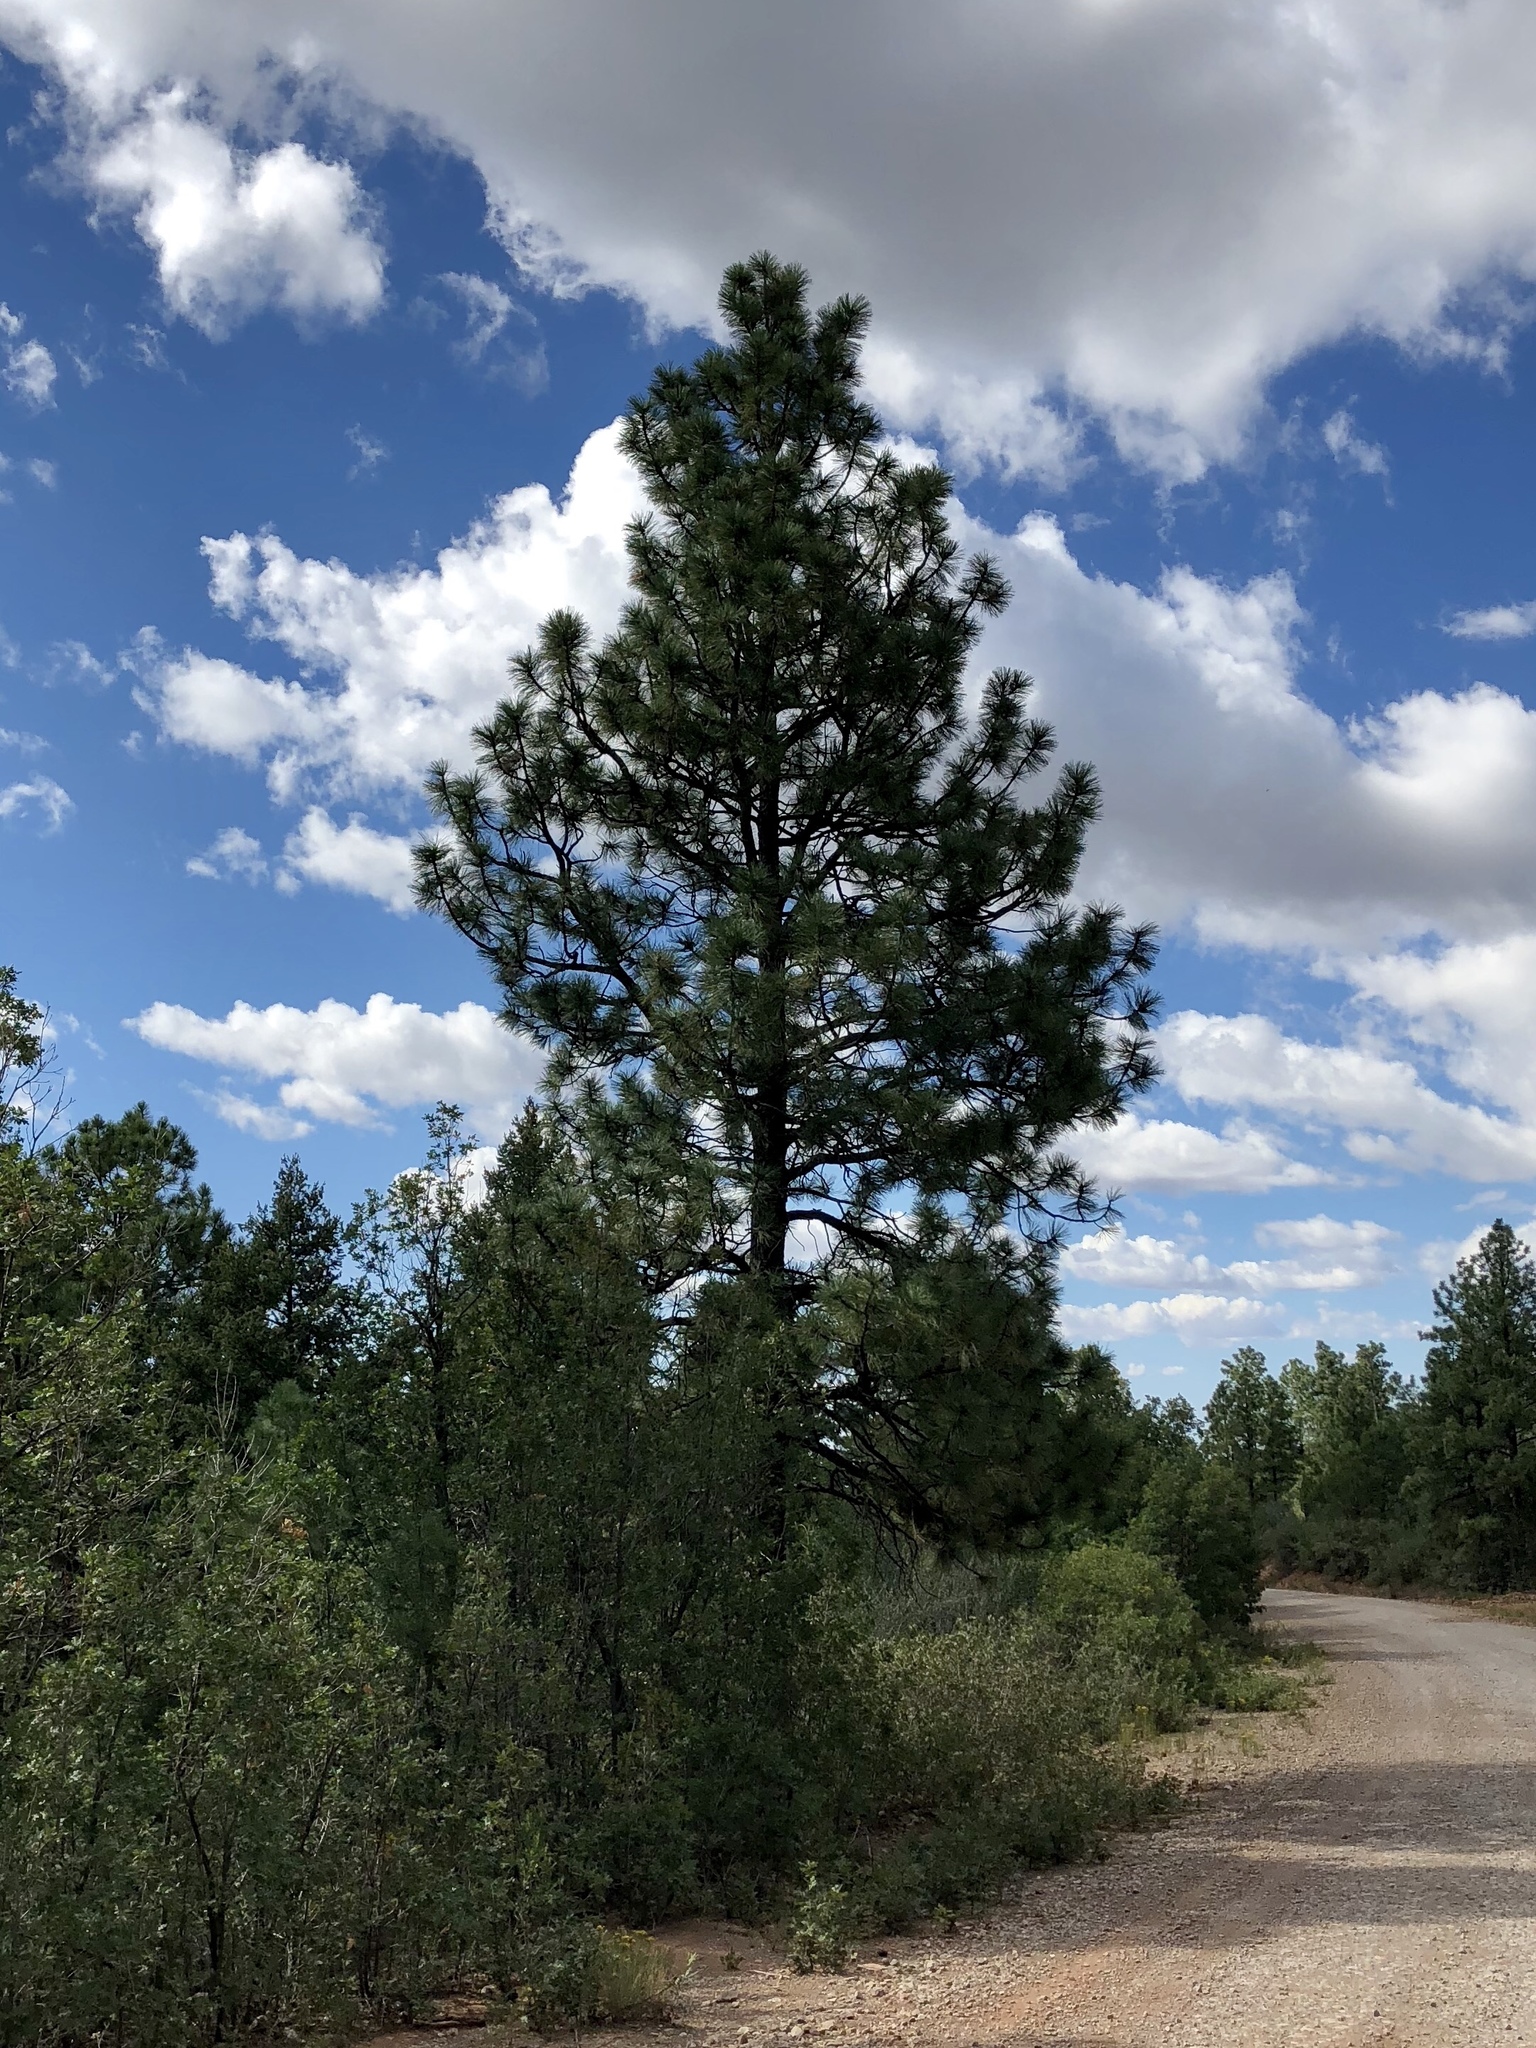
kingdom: Plantae
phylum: Tracheophyta
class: Pinopsida
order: Pinales
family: Pinaceae
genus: Pinus
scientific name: Pinus ponderosa
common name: Western yellow-pine
